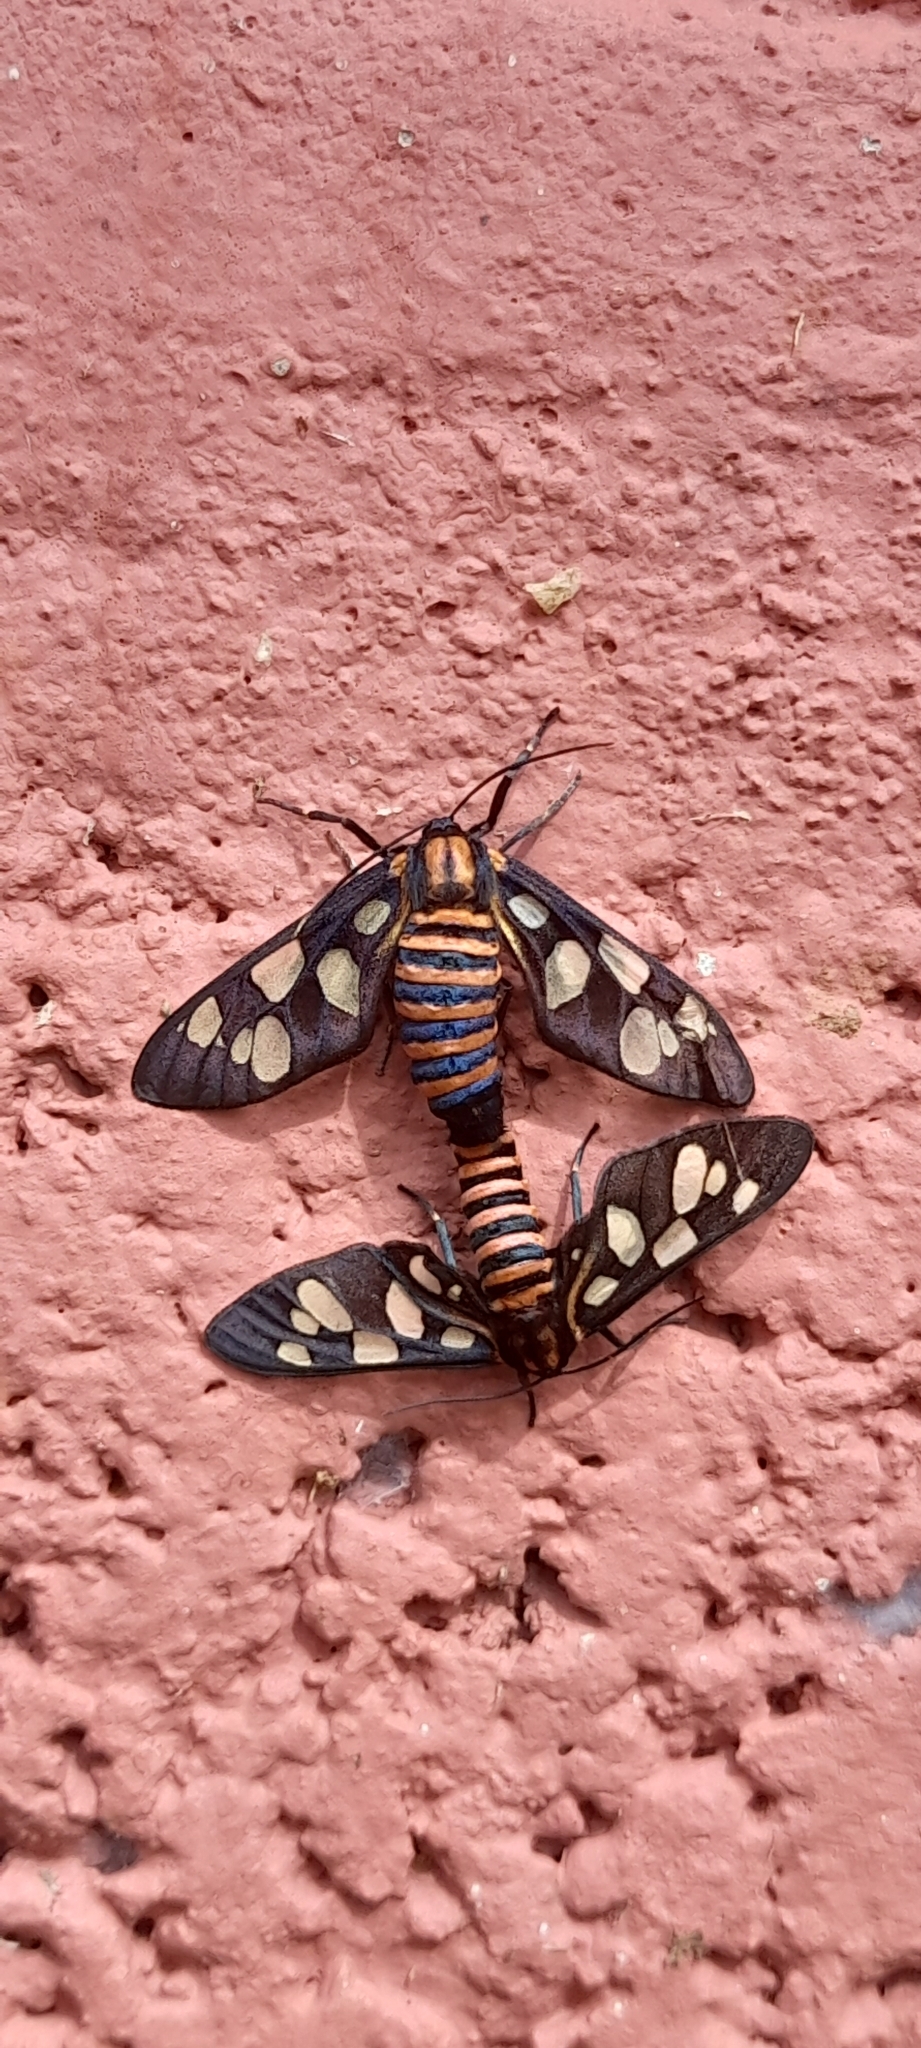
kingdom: Animalia
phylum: Arthropoda
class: Insecta
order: Lepidoptera
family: Erebidae
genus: Amata
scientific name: Amata passalis
